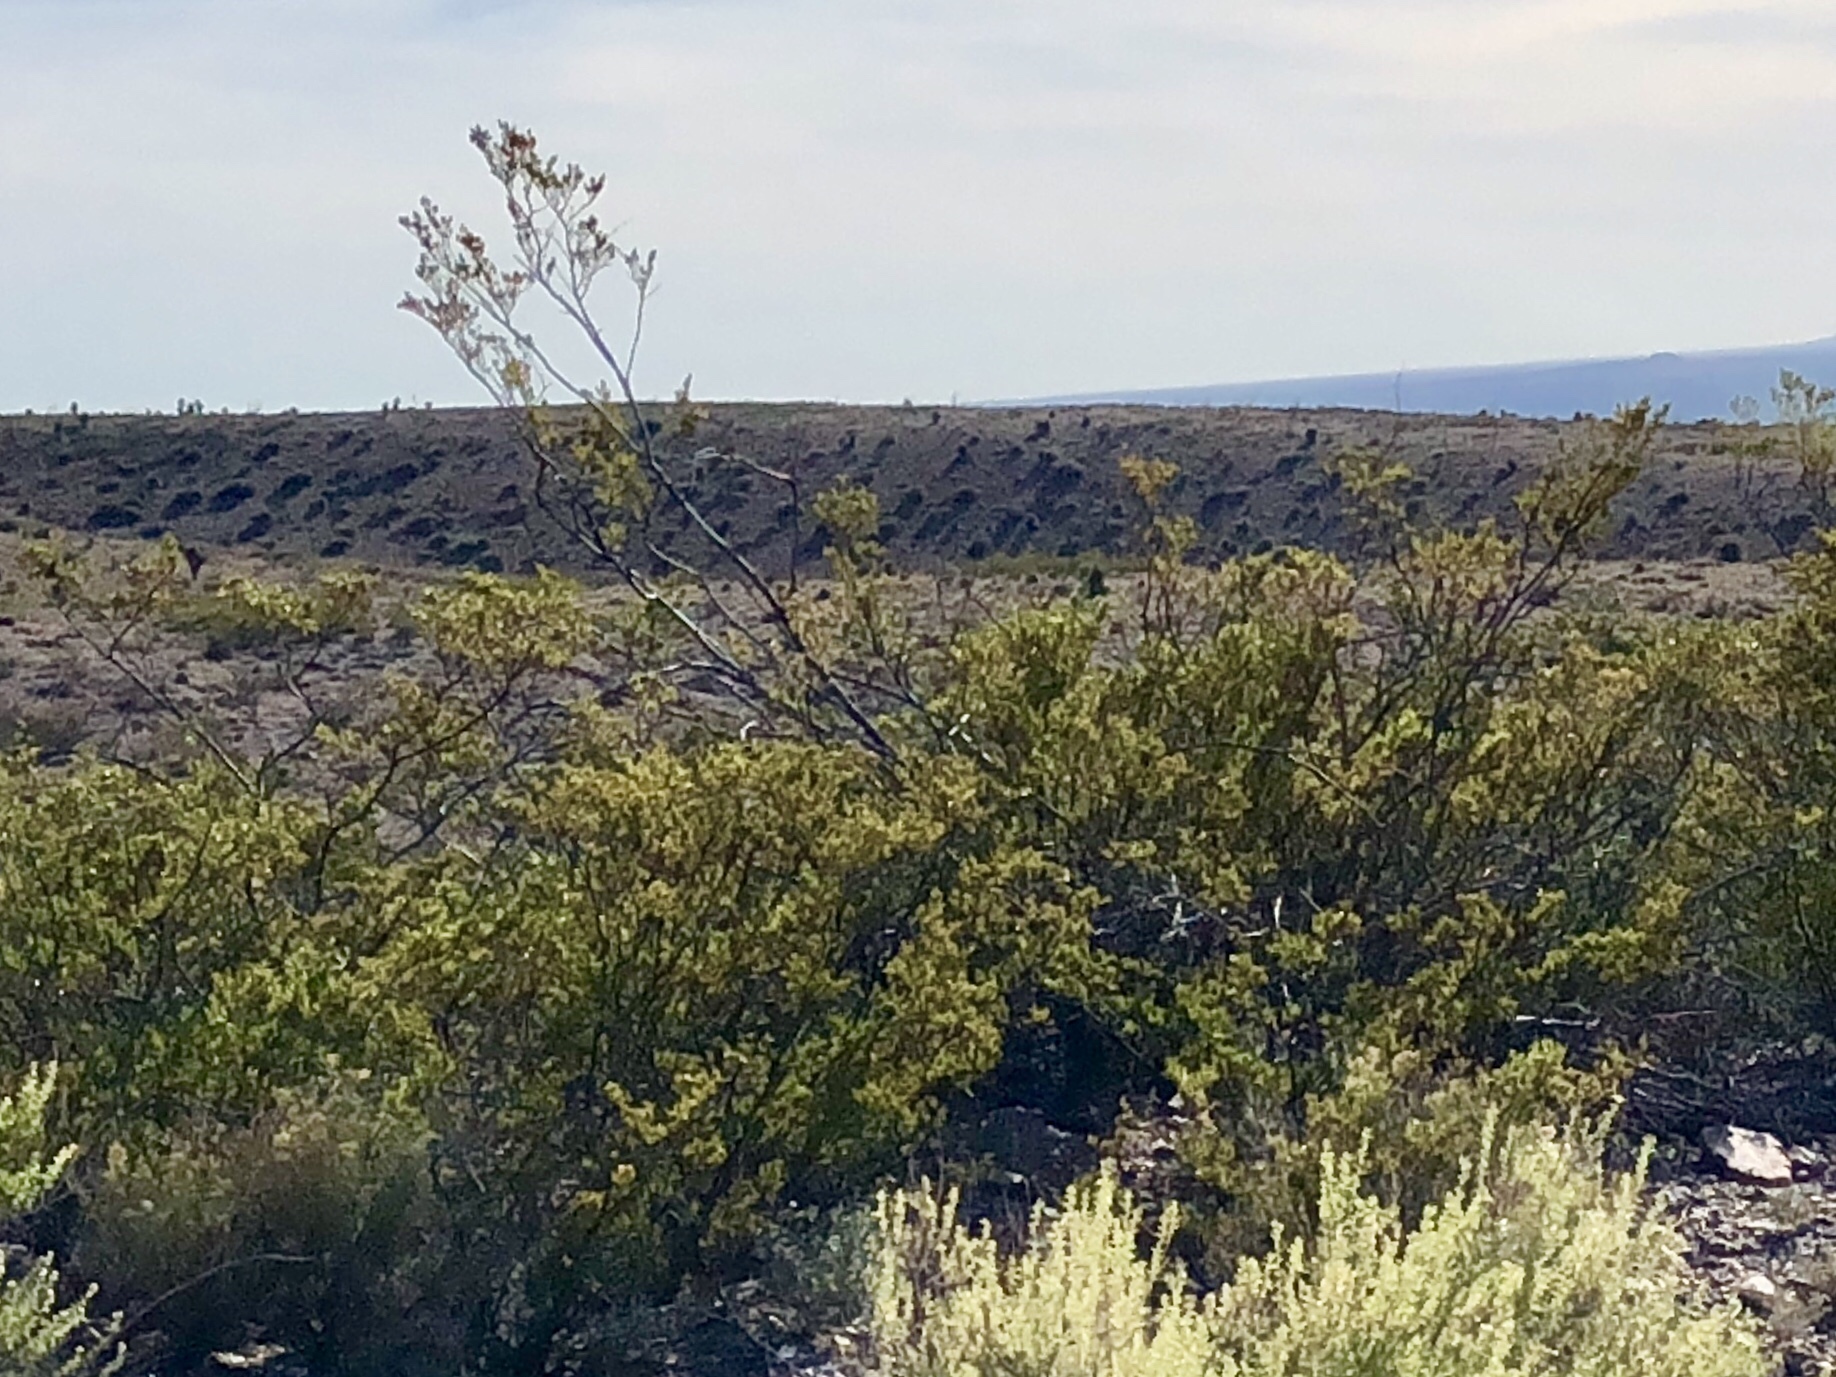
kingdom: Plantae
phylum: Tracheophyta
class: Magnoliopsida
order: Zygophyllales
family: Zygophyllaceae
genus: Larrea
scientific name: Larrea tridentata
